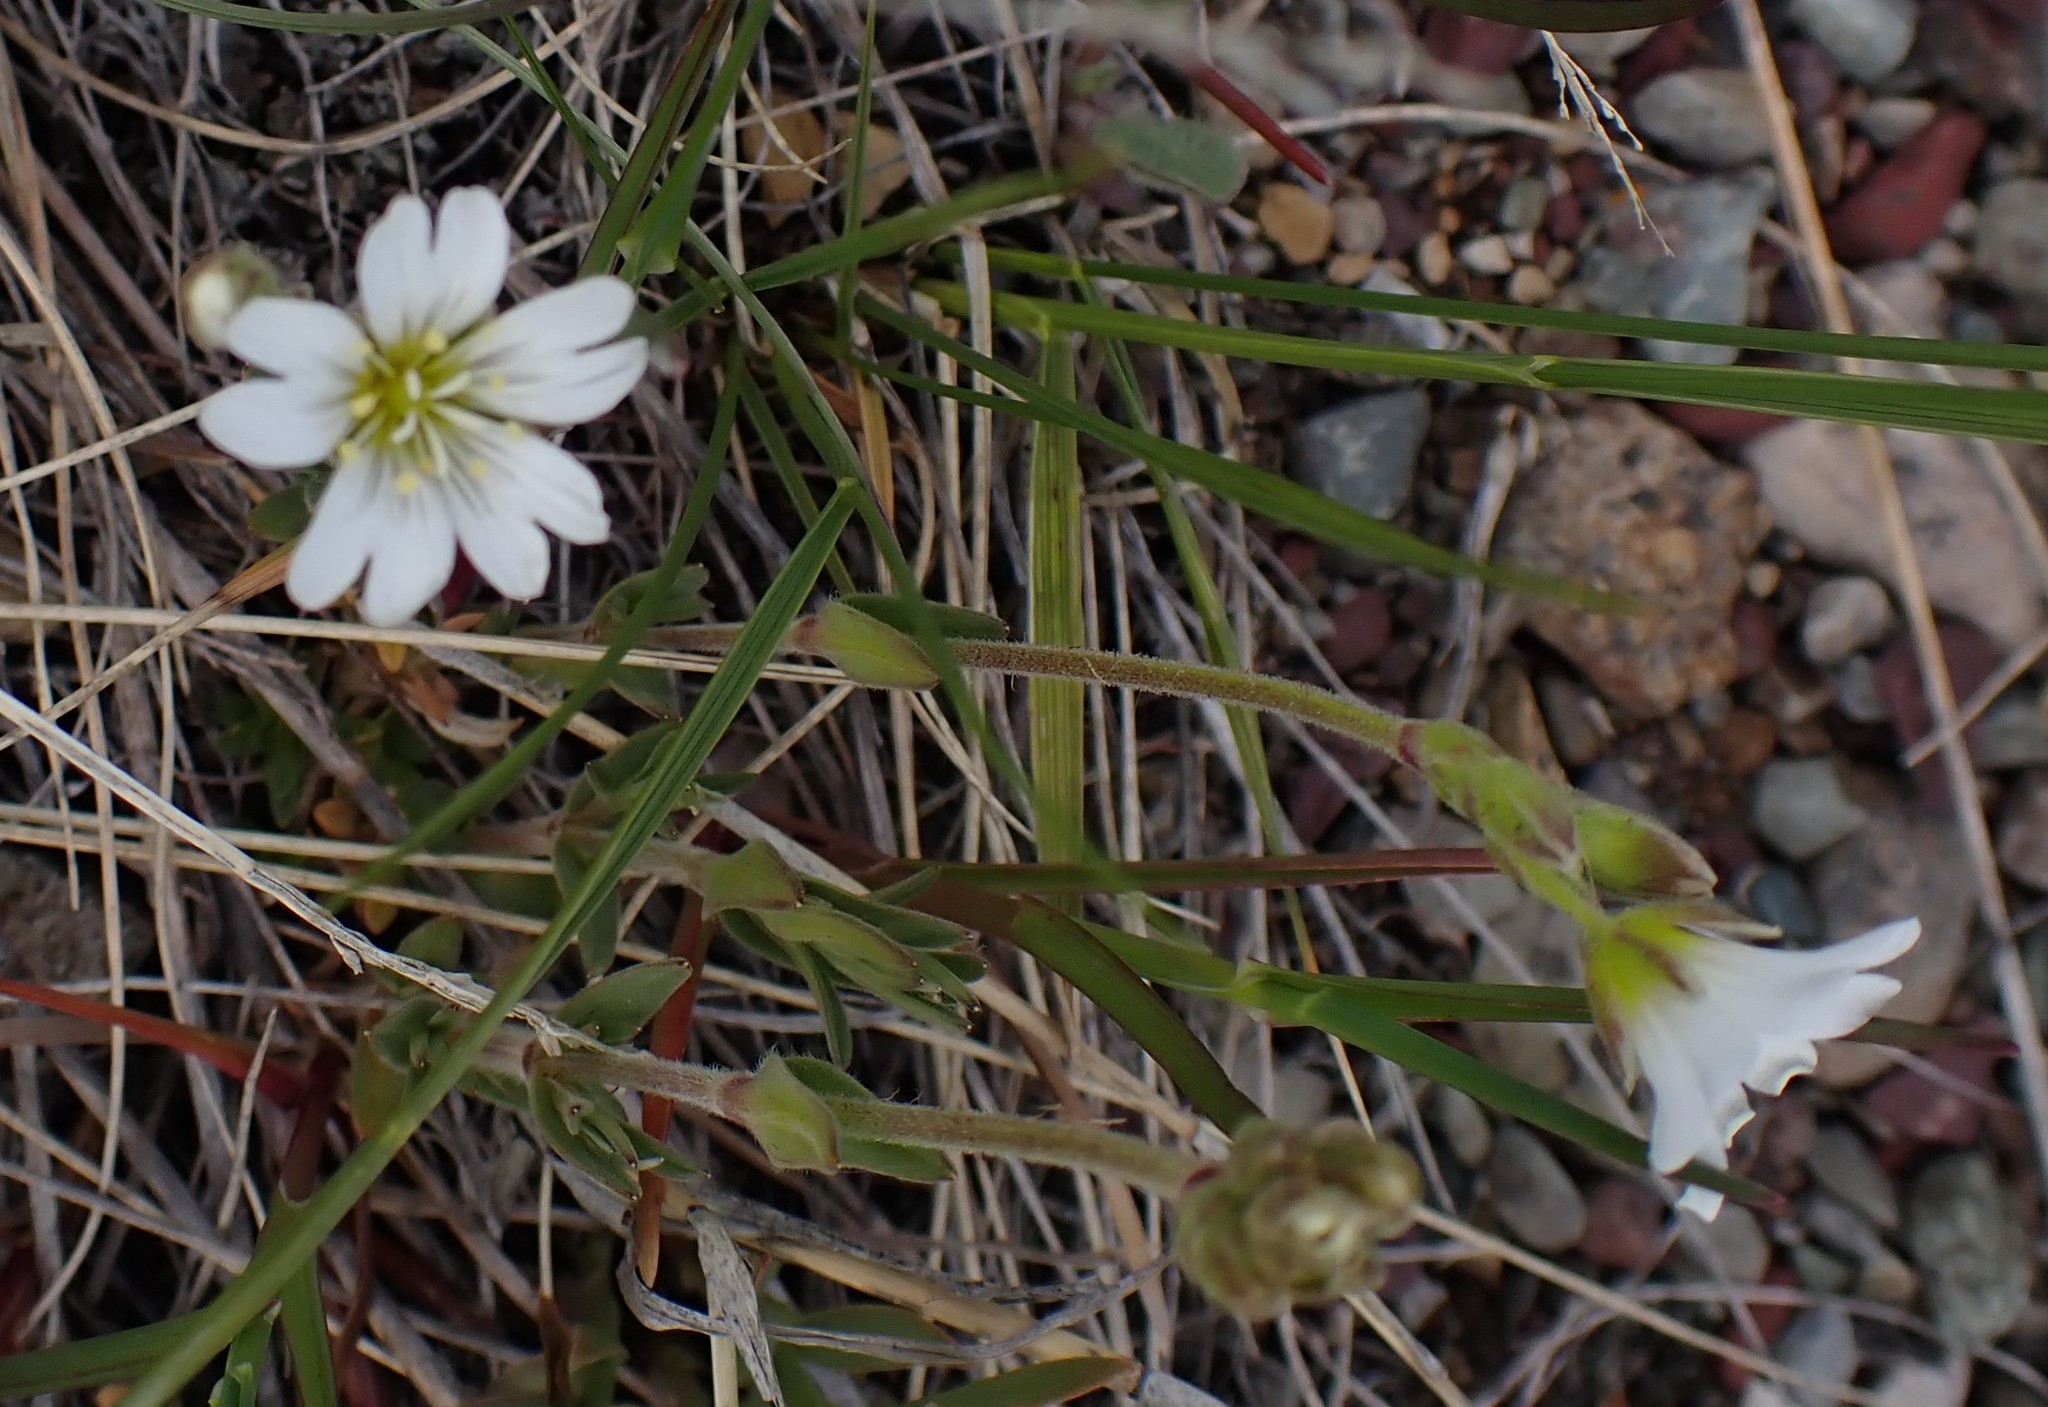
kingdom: Plantae
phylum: Tracheophyta
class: Magnoliopsida
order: Caryophyllales
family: Caryophyllaceae
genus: Cerastium
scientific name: Cerastium arvense
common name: Field mouse-ear
